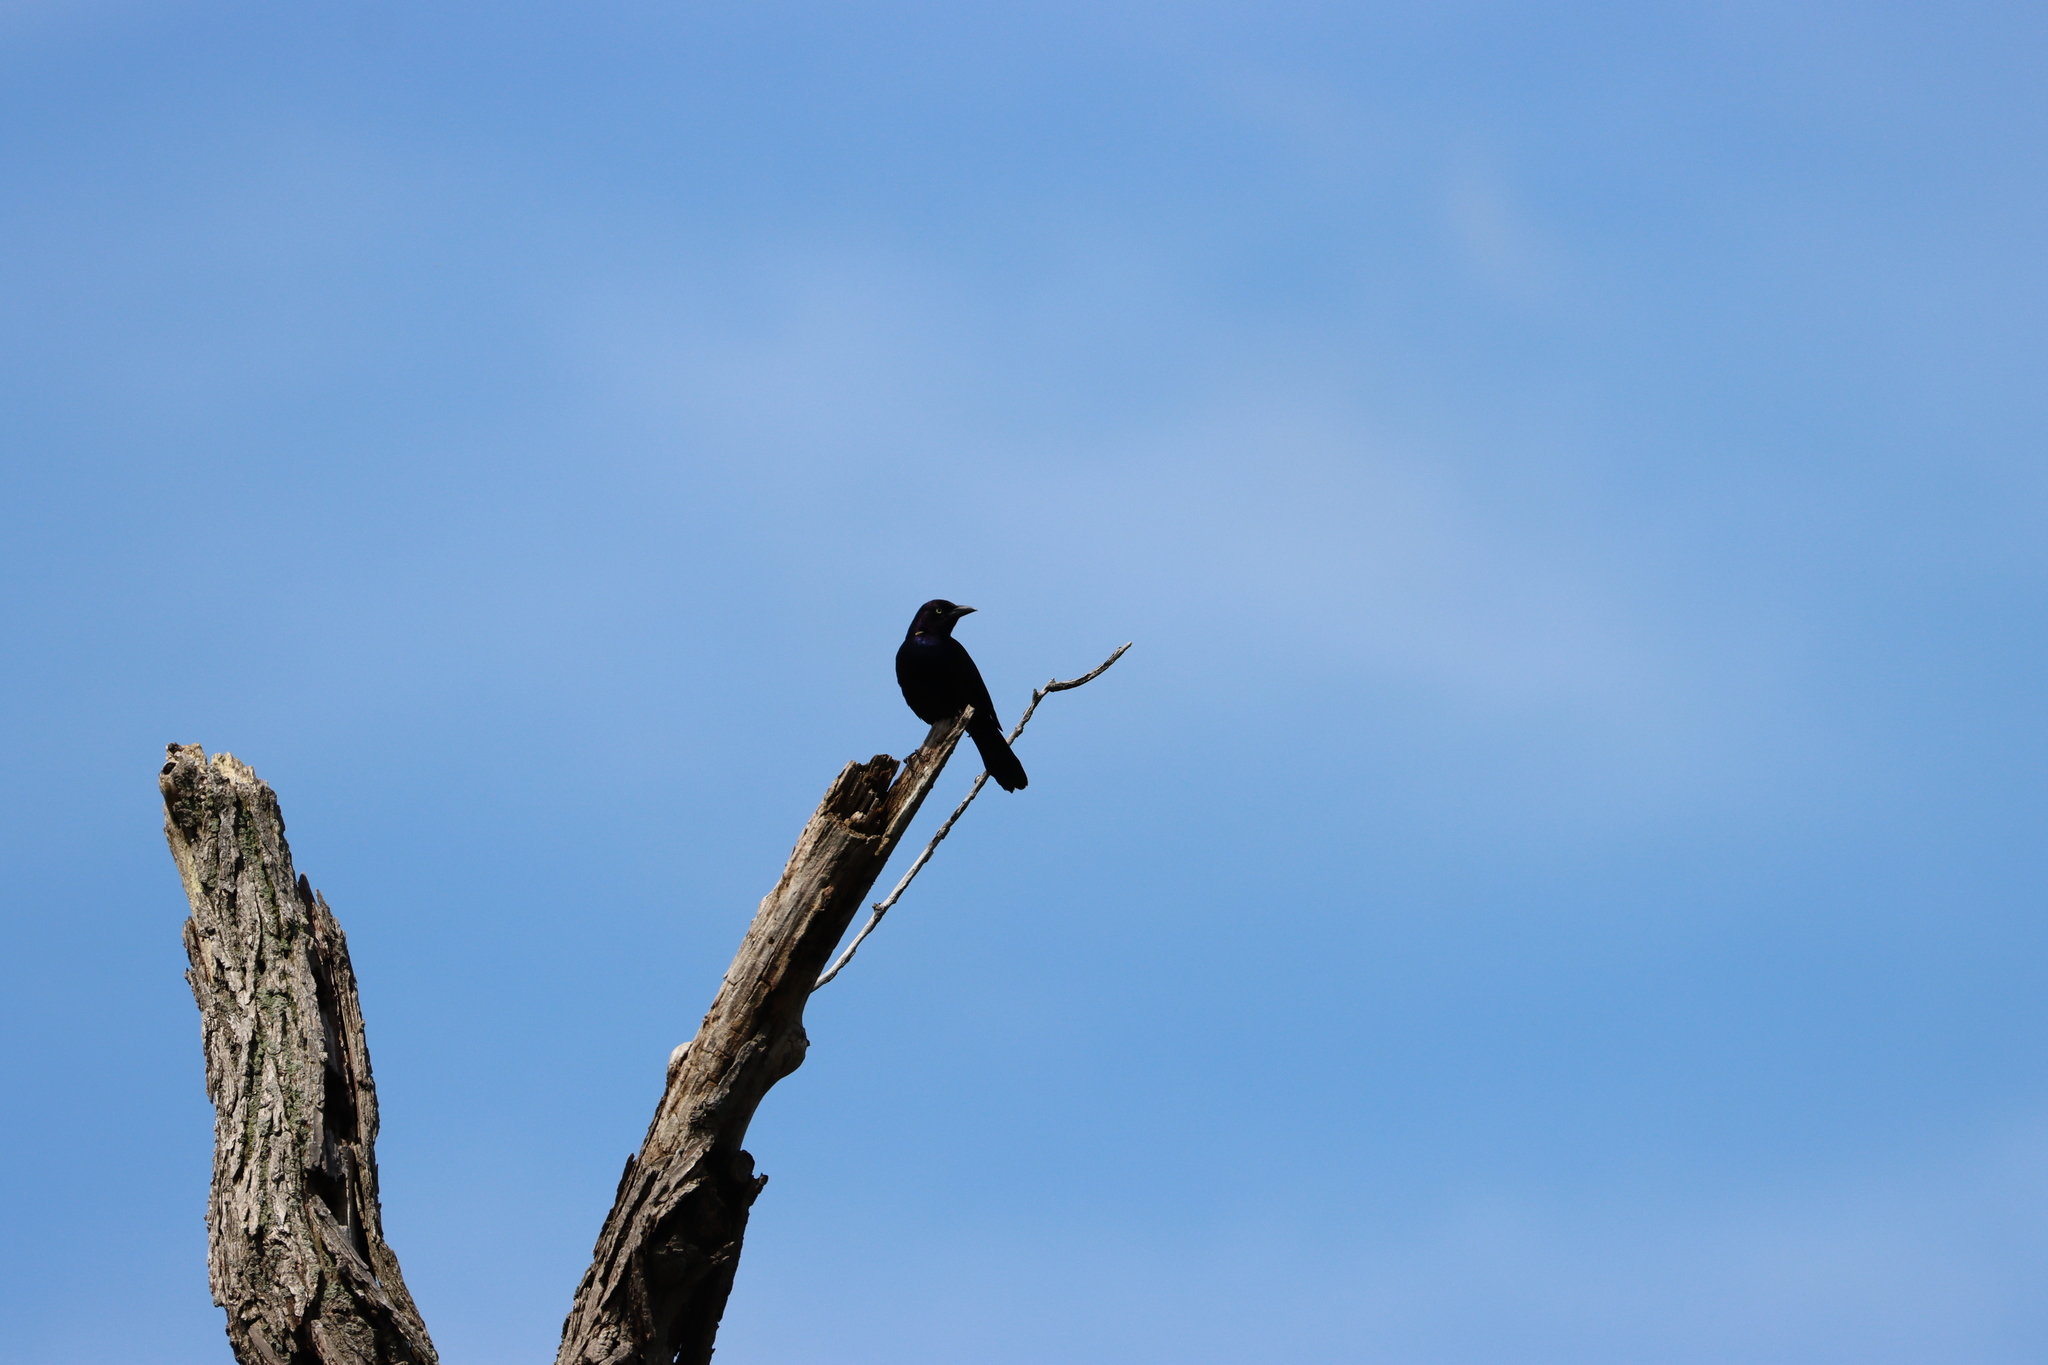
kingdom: Animalia
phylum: Chordata
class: Aves
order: Passeriformes
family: Icteridae
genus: Quiscalus
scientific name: Quiscalus quiscula
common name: Common grackle
